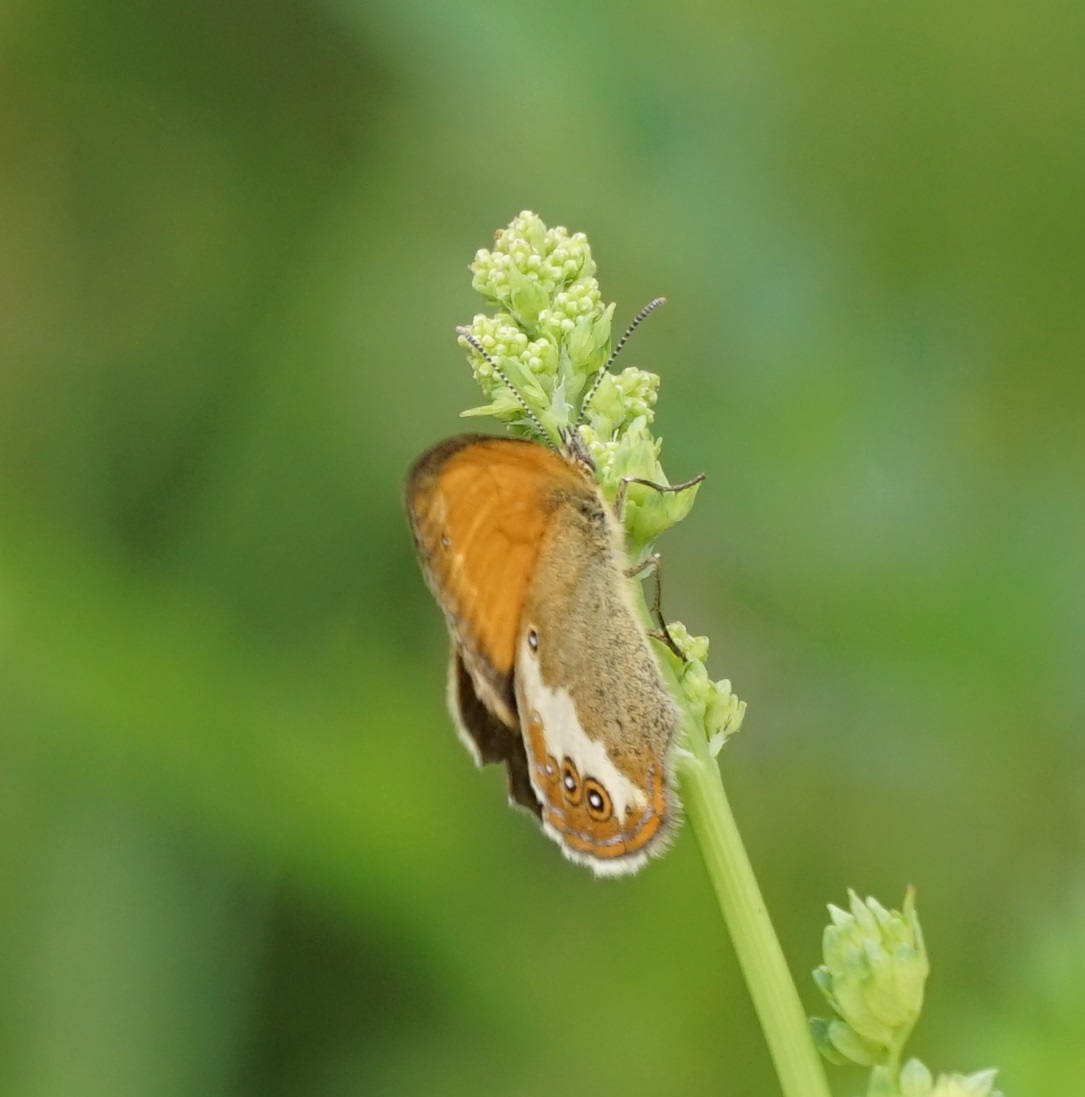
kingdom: Animalia
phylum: Arthropoda
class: Insecta
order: Lepidoptera
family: Nymphalidae
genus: Coenonympha
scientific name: Coenonympha arcania
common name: Pearly heath
